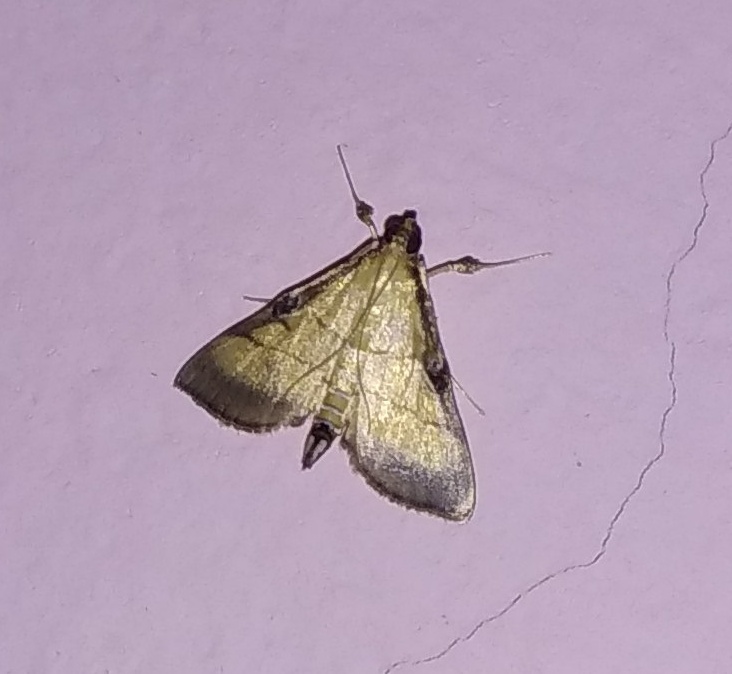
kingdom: Animalia
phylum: Arthropoda
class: Insecta
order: Lepidoptera
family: Crambidae
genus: Cnaphalocrocis
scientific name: Cnaphalocrocis medinalis
